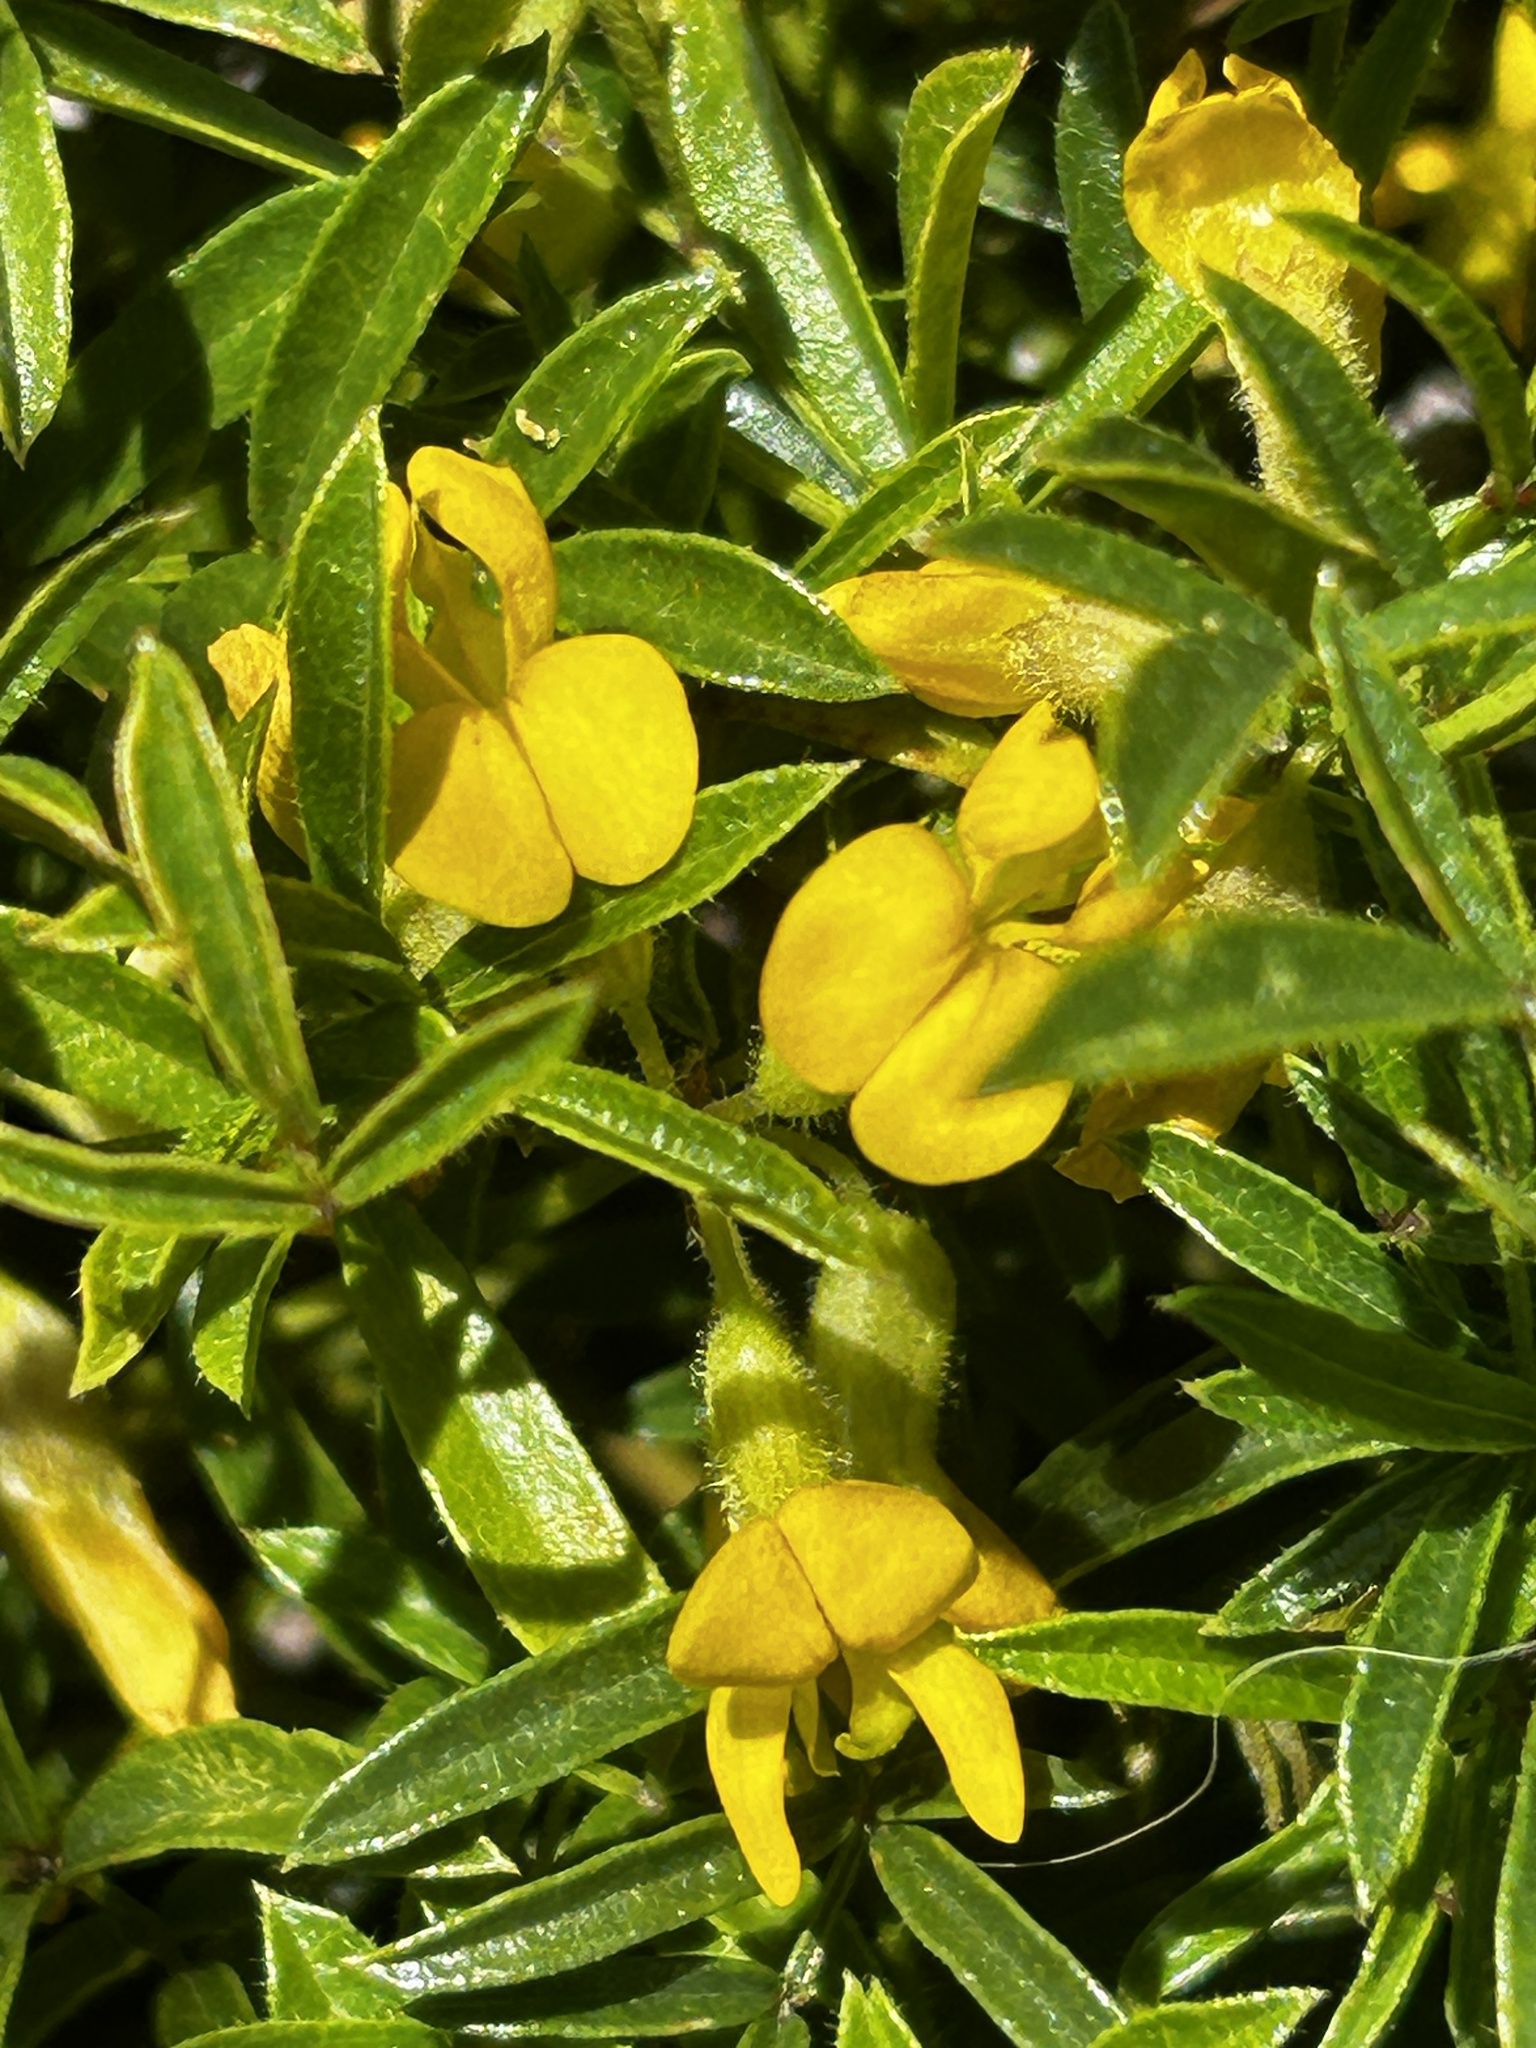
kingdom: Plantae
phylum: Tracheophyta
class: Magnoliopsida
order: Fabales
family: Fabaceae
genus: Rhynchosia
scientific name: Rhynchosia ferulifolia
